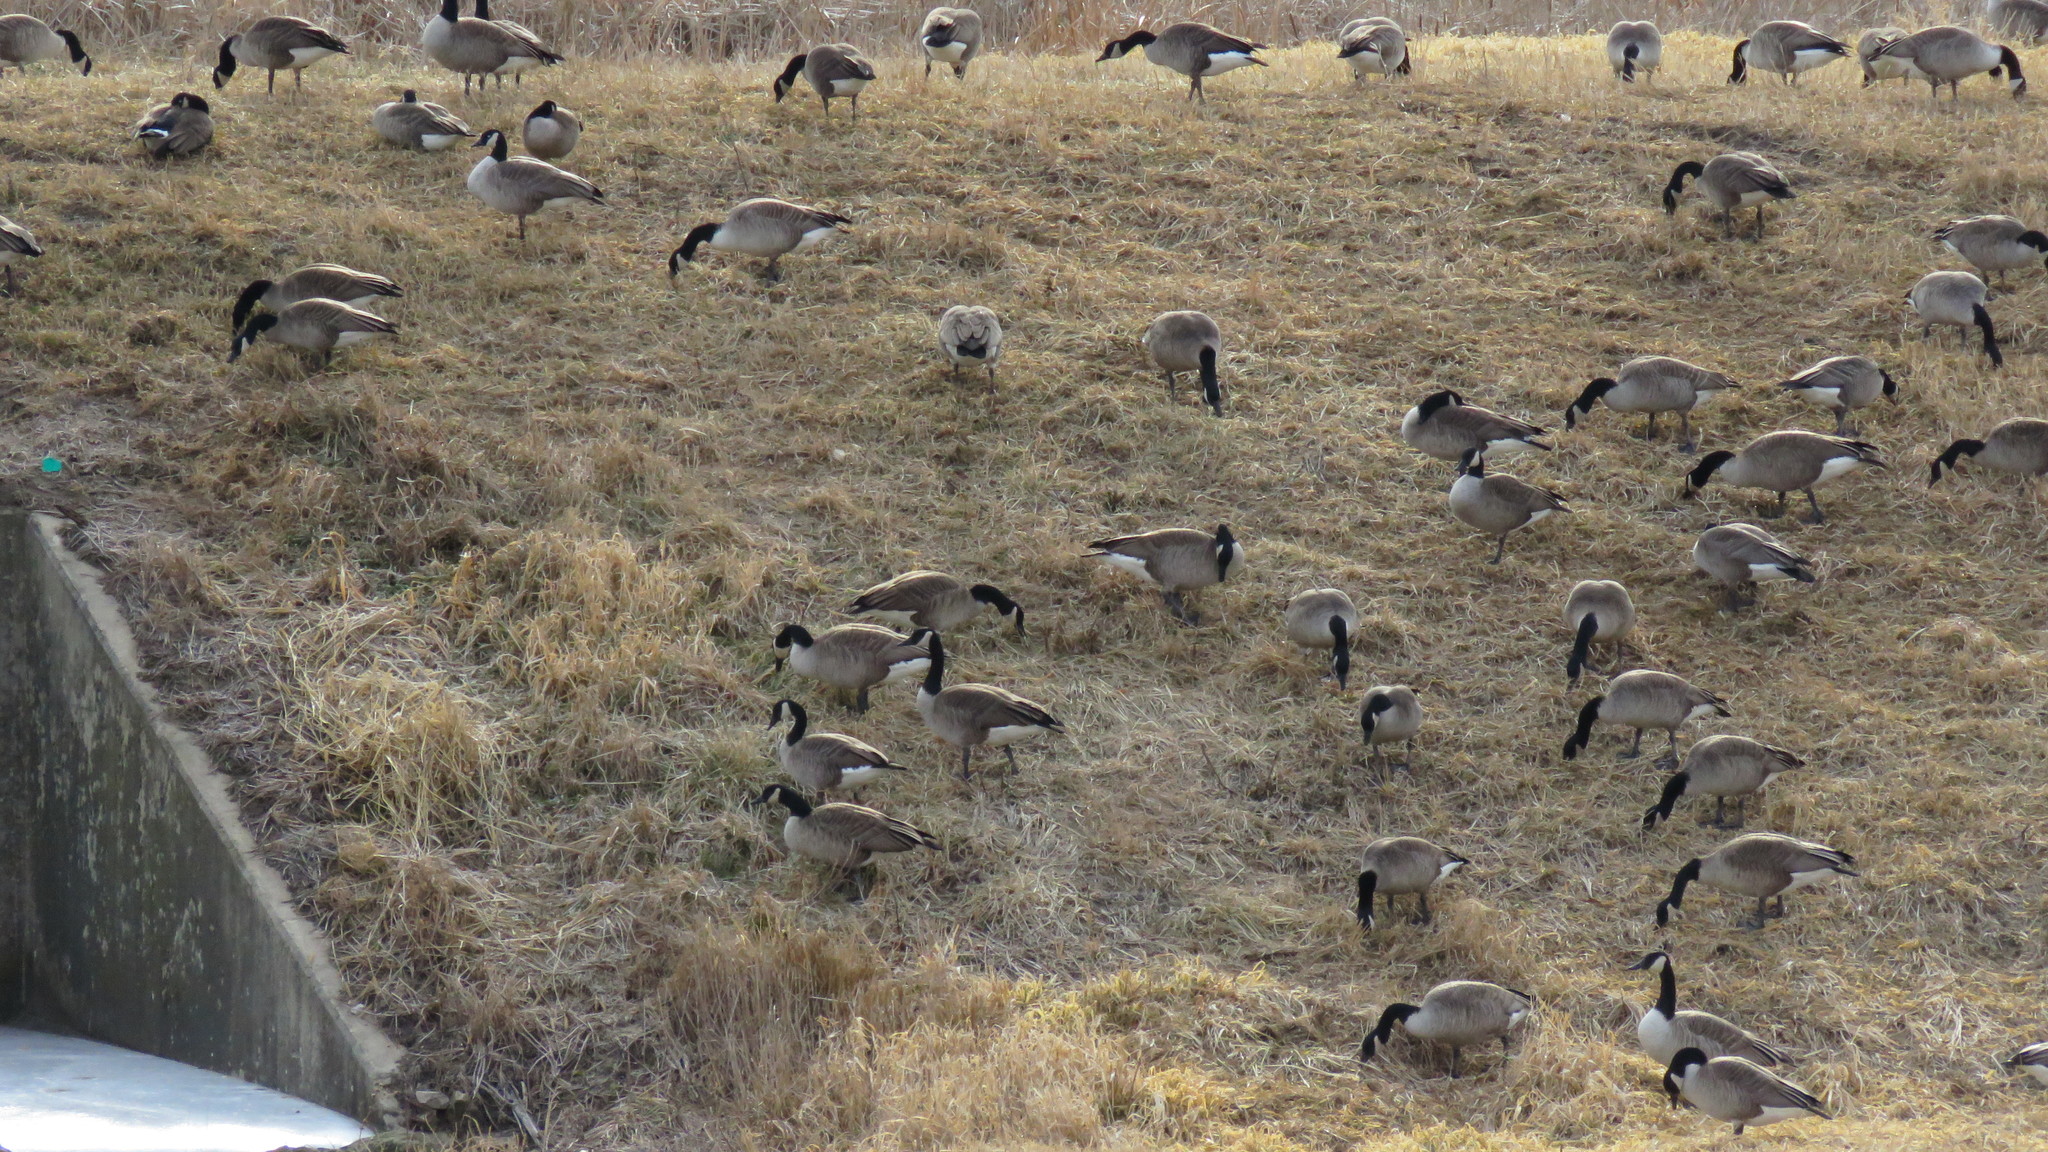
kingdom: Animalia
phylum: Chordata
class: Aves
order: Anseriformes
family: Anatidae
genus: Branta
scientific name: Branta canadensis
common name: Canada goose
